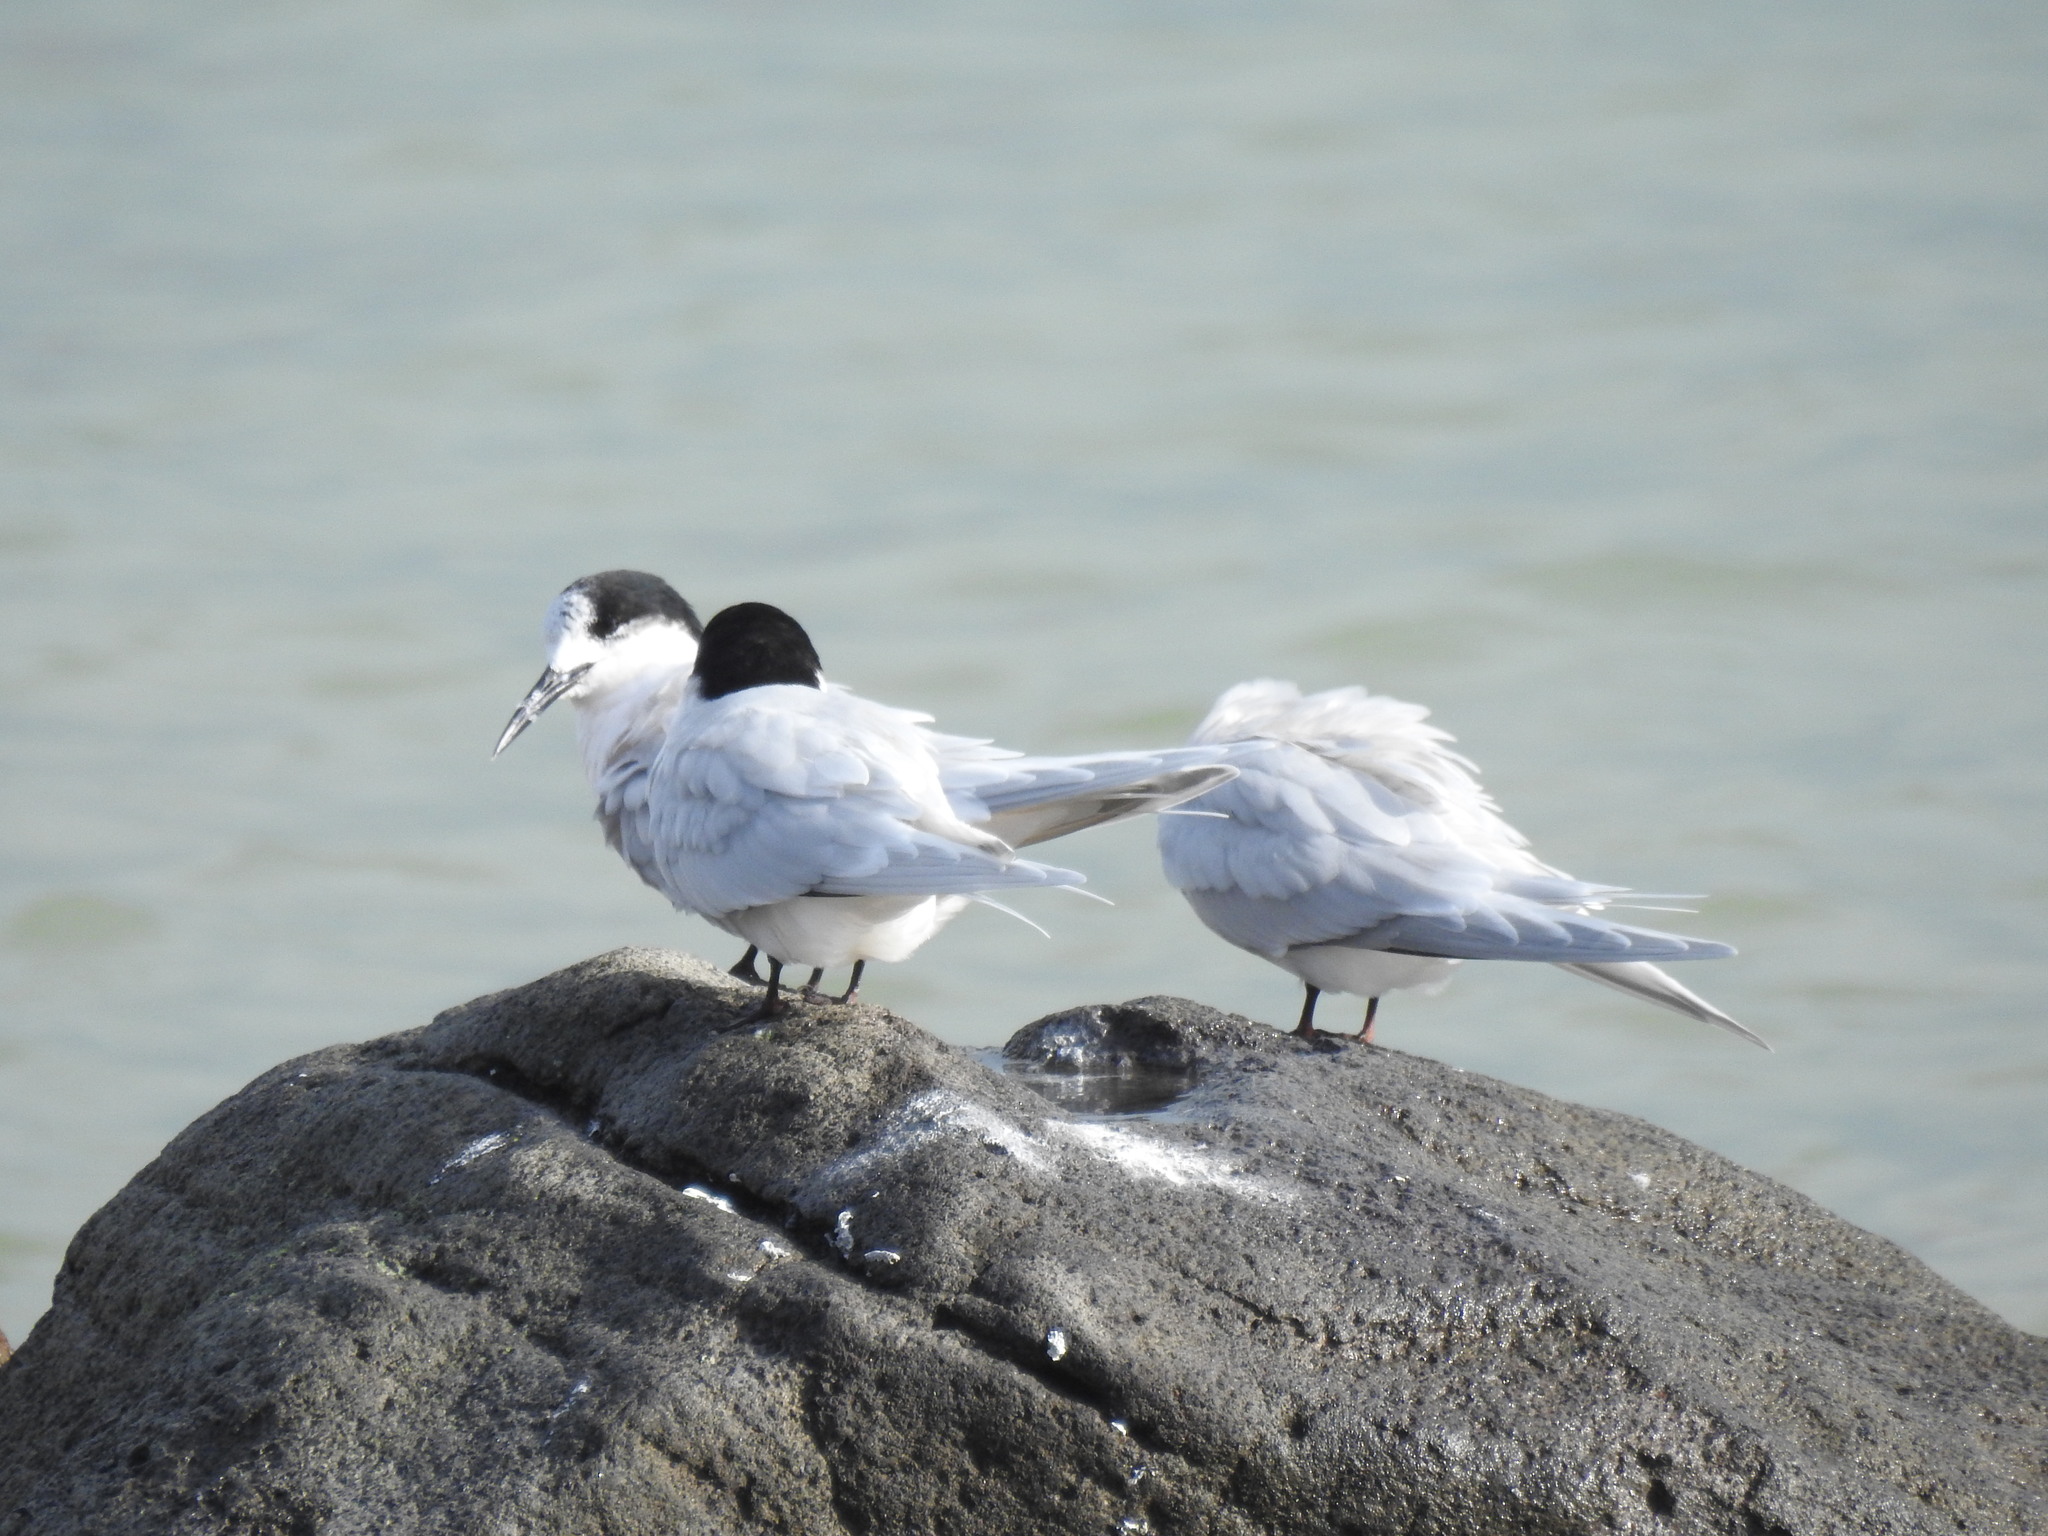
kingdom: Animalia
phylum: Chordata
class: Aves
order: Charadriiformes
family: Laridae
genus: Sterna
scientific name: Sterna striata
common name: White-fronted tern
